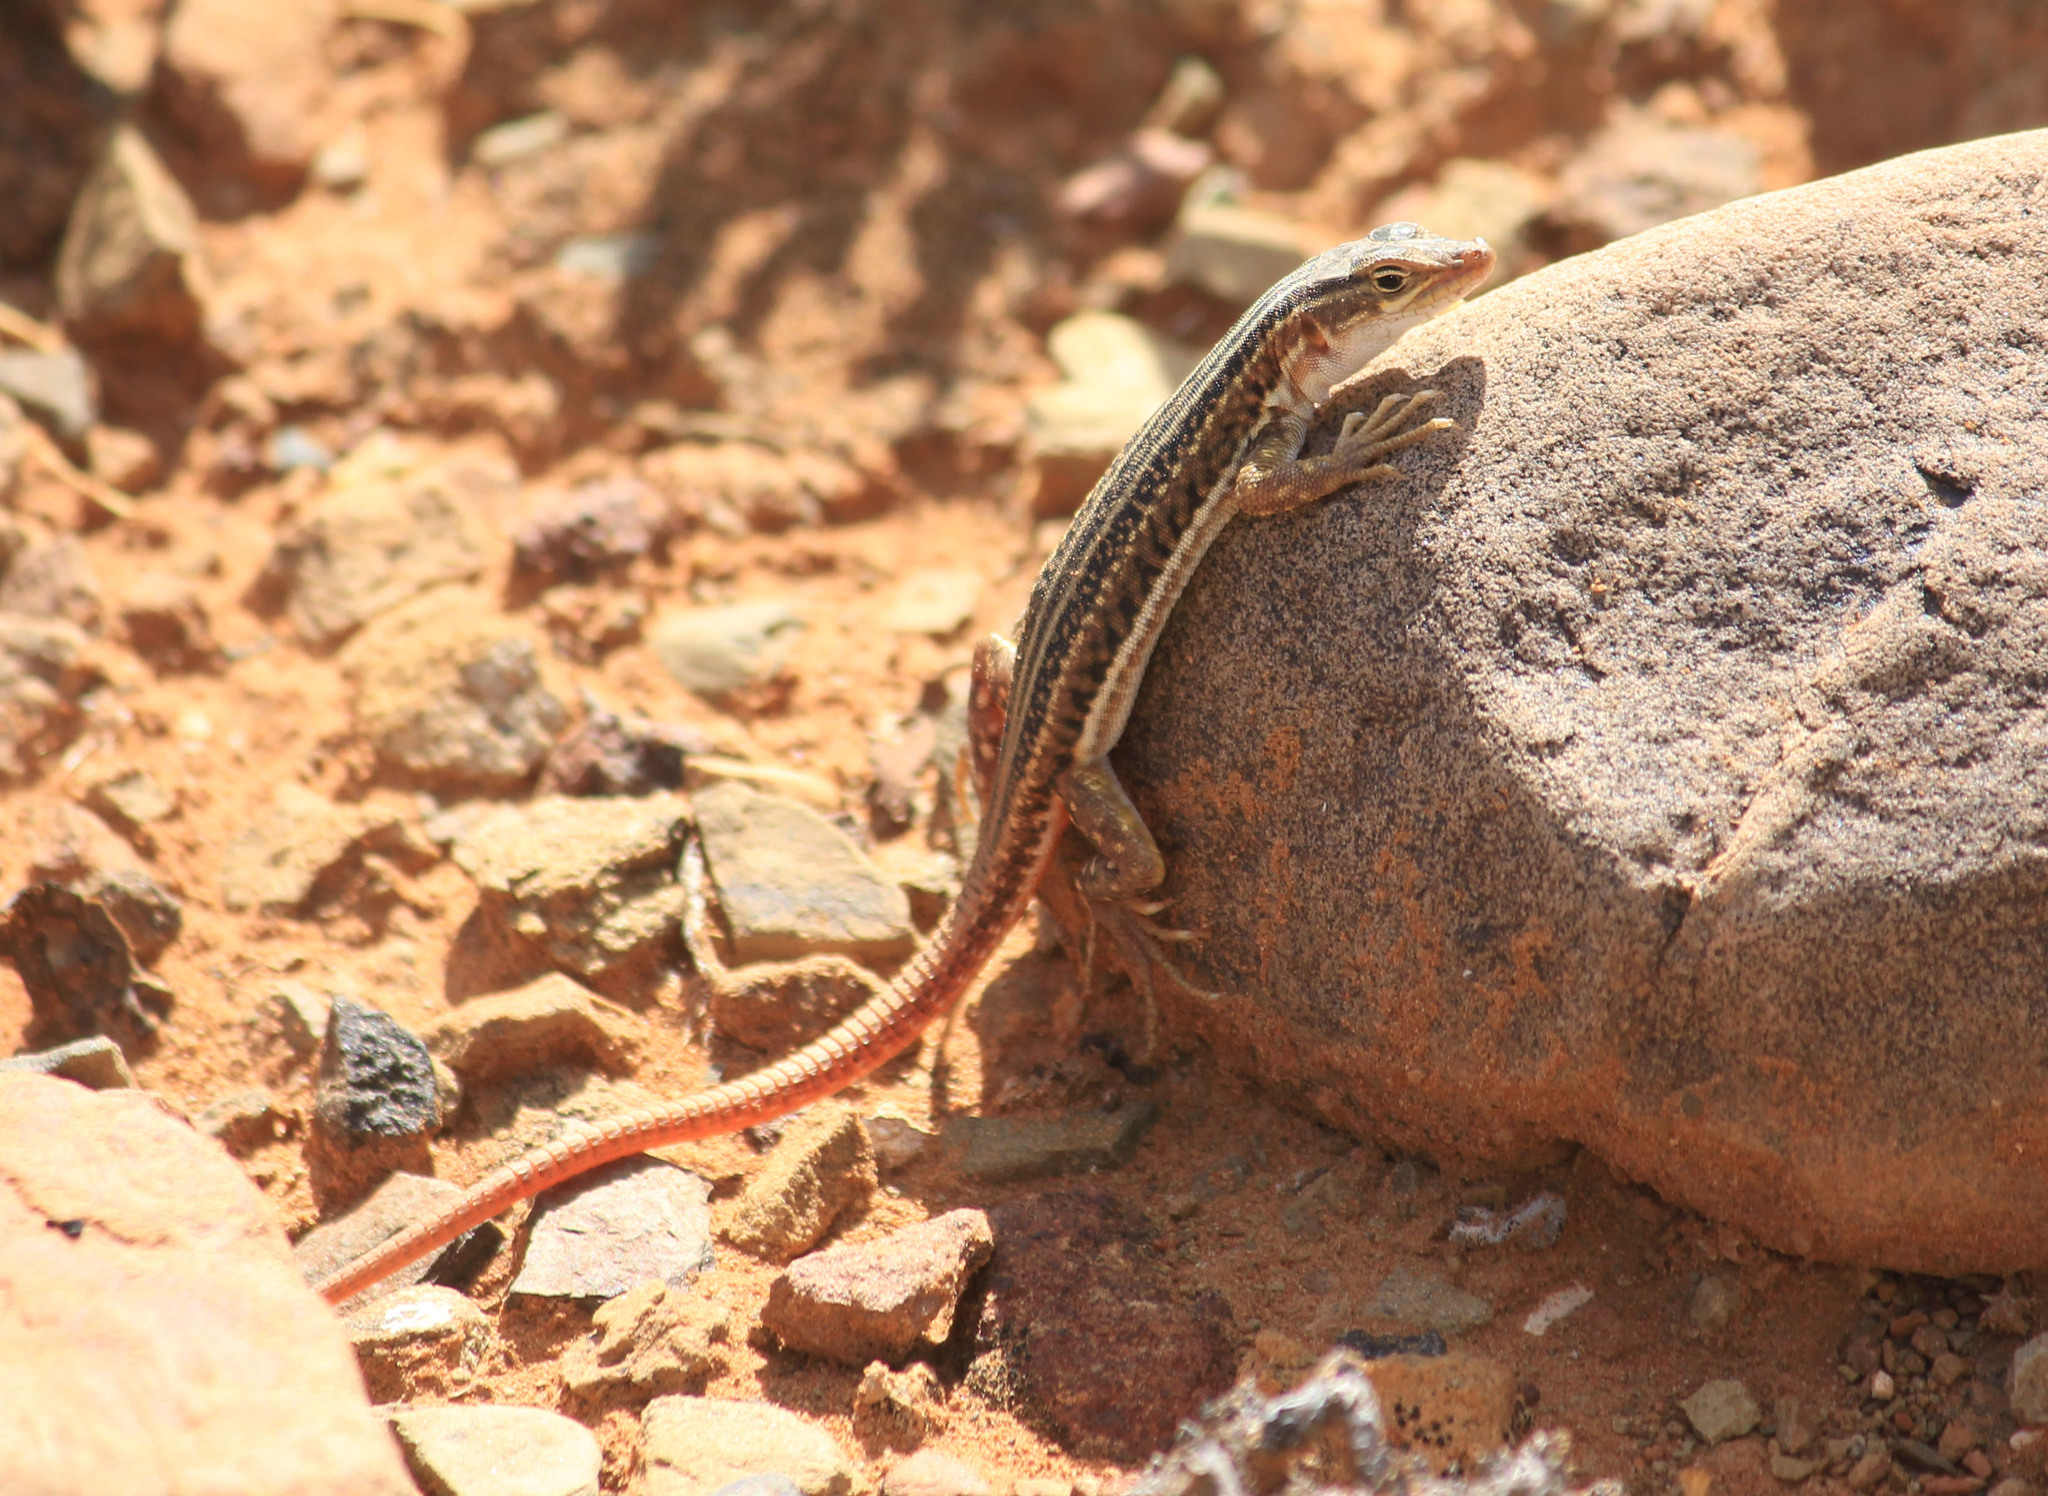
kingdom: Animalia
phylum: Chordata
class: Squamata
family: Lacertidae
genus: Pedioplanis
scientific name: Pedioplanis laticeps
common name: Karoo sand lizard
